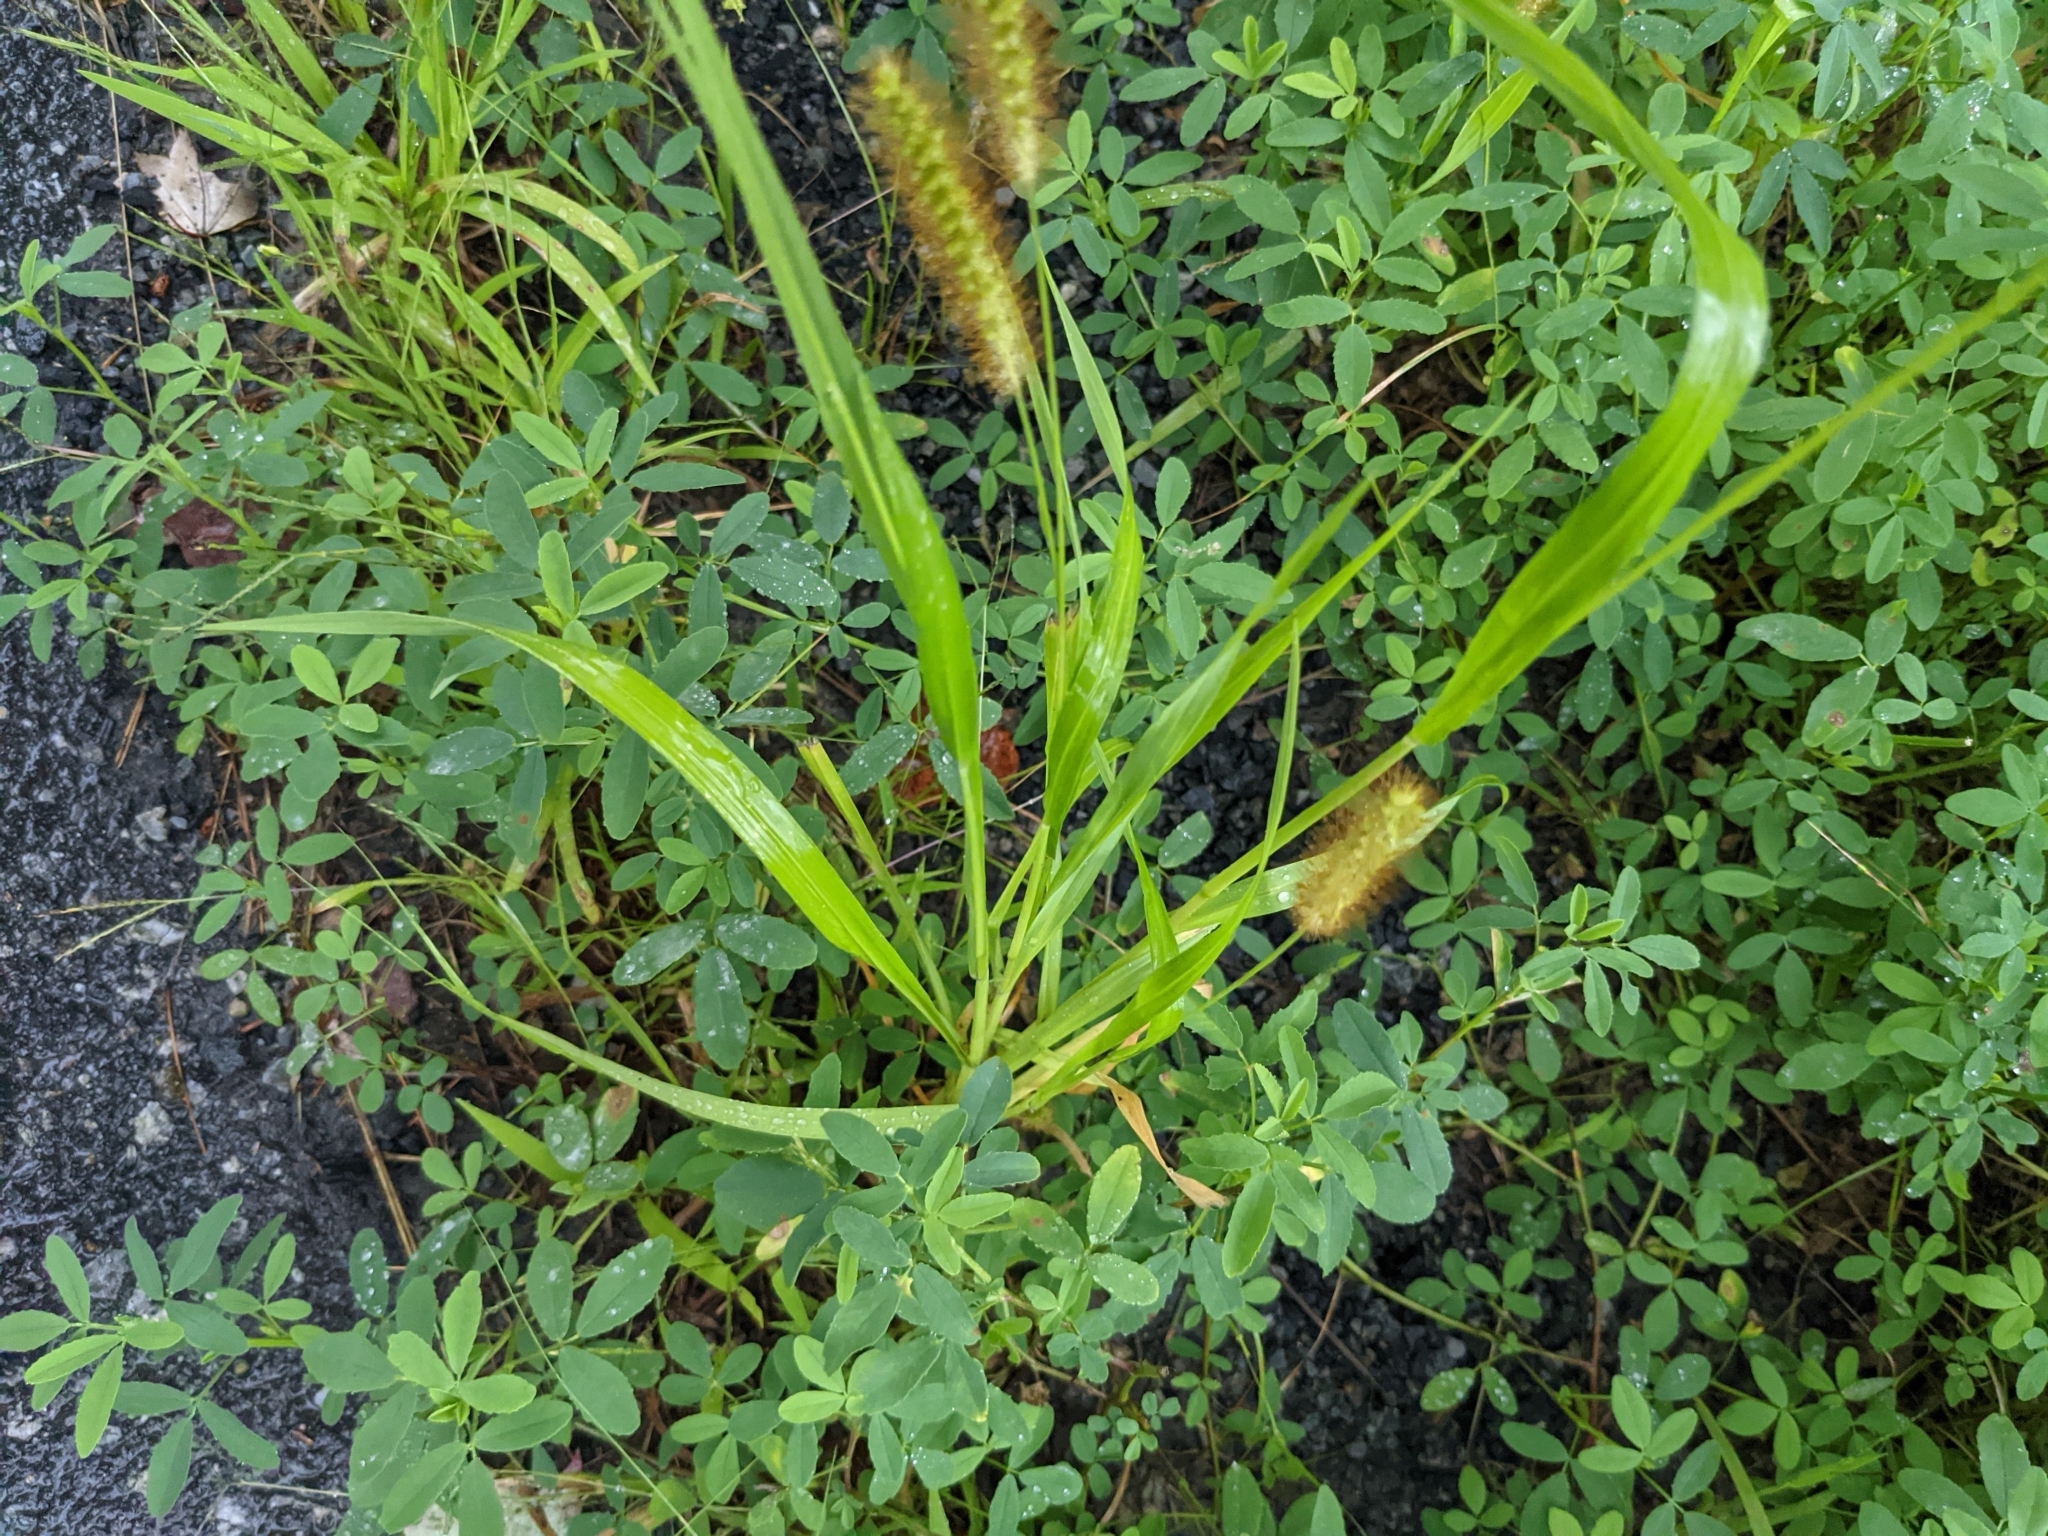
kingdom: Plantae
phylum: Tracheophyta
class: Liliopsida
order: Poales
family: Poaceae
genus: Setaria
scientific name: Setaria pumila
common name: Yellow bristle-grass
